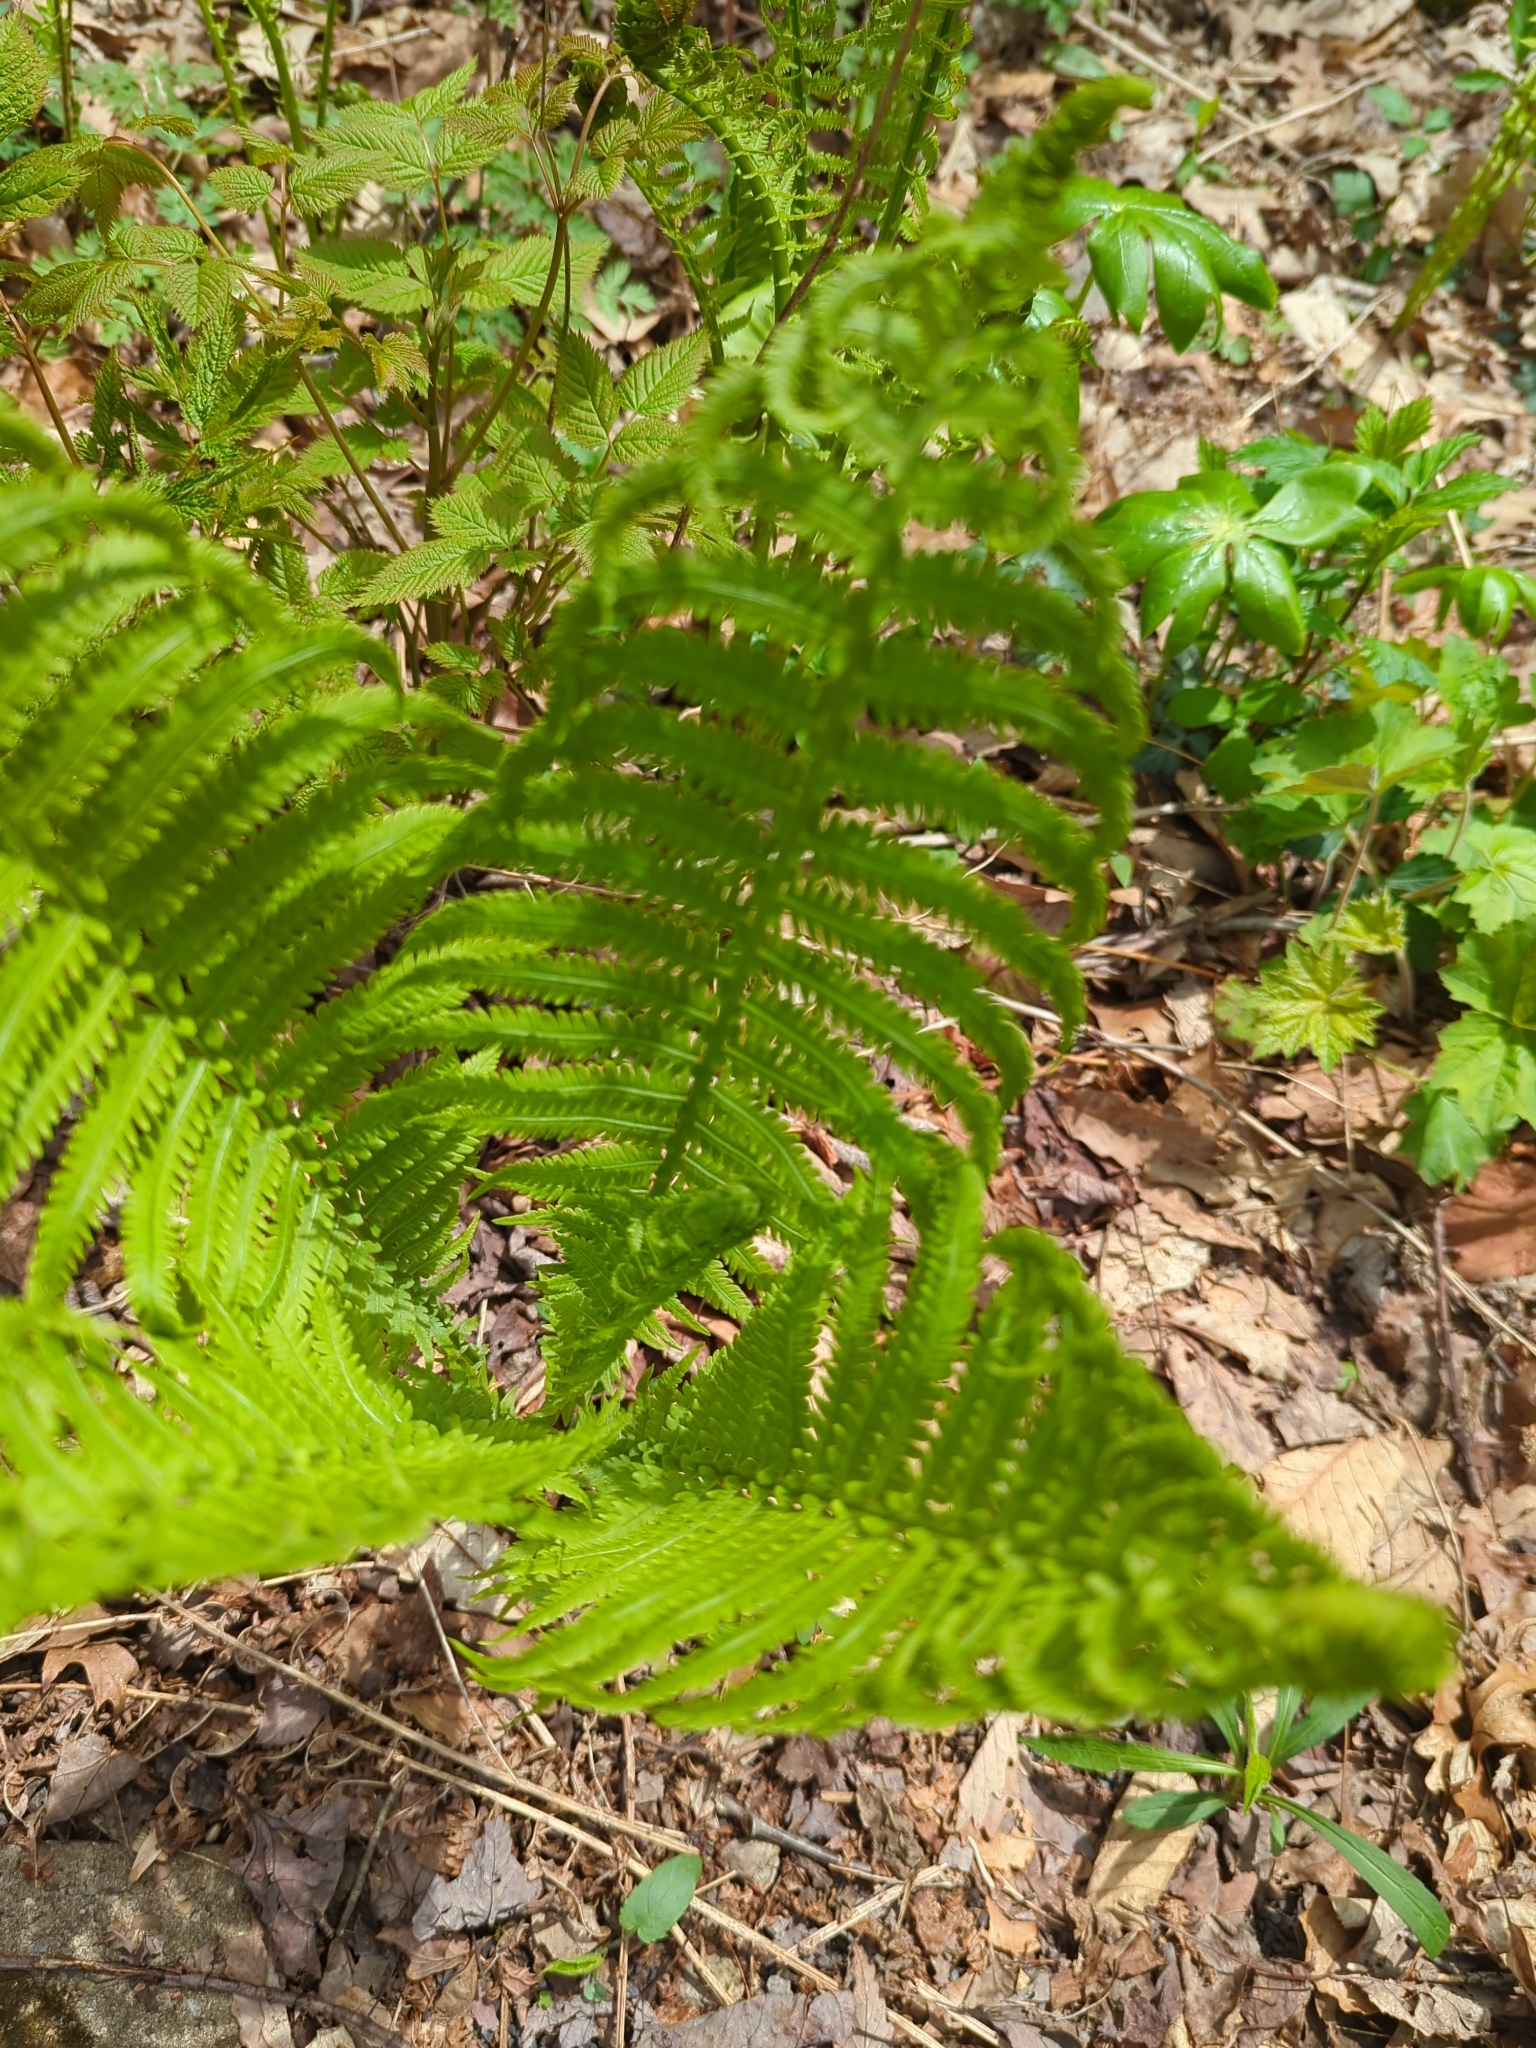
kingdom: Plantae
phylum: Tracheophyta
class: Polypodiopsida
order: Polypodiales
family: Onocleaceae
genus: Matteuccia
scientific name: Matteuccia struthiopteris
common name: Ostrich fern
